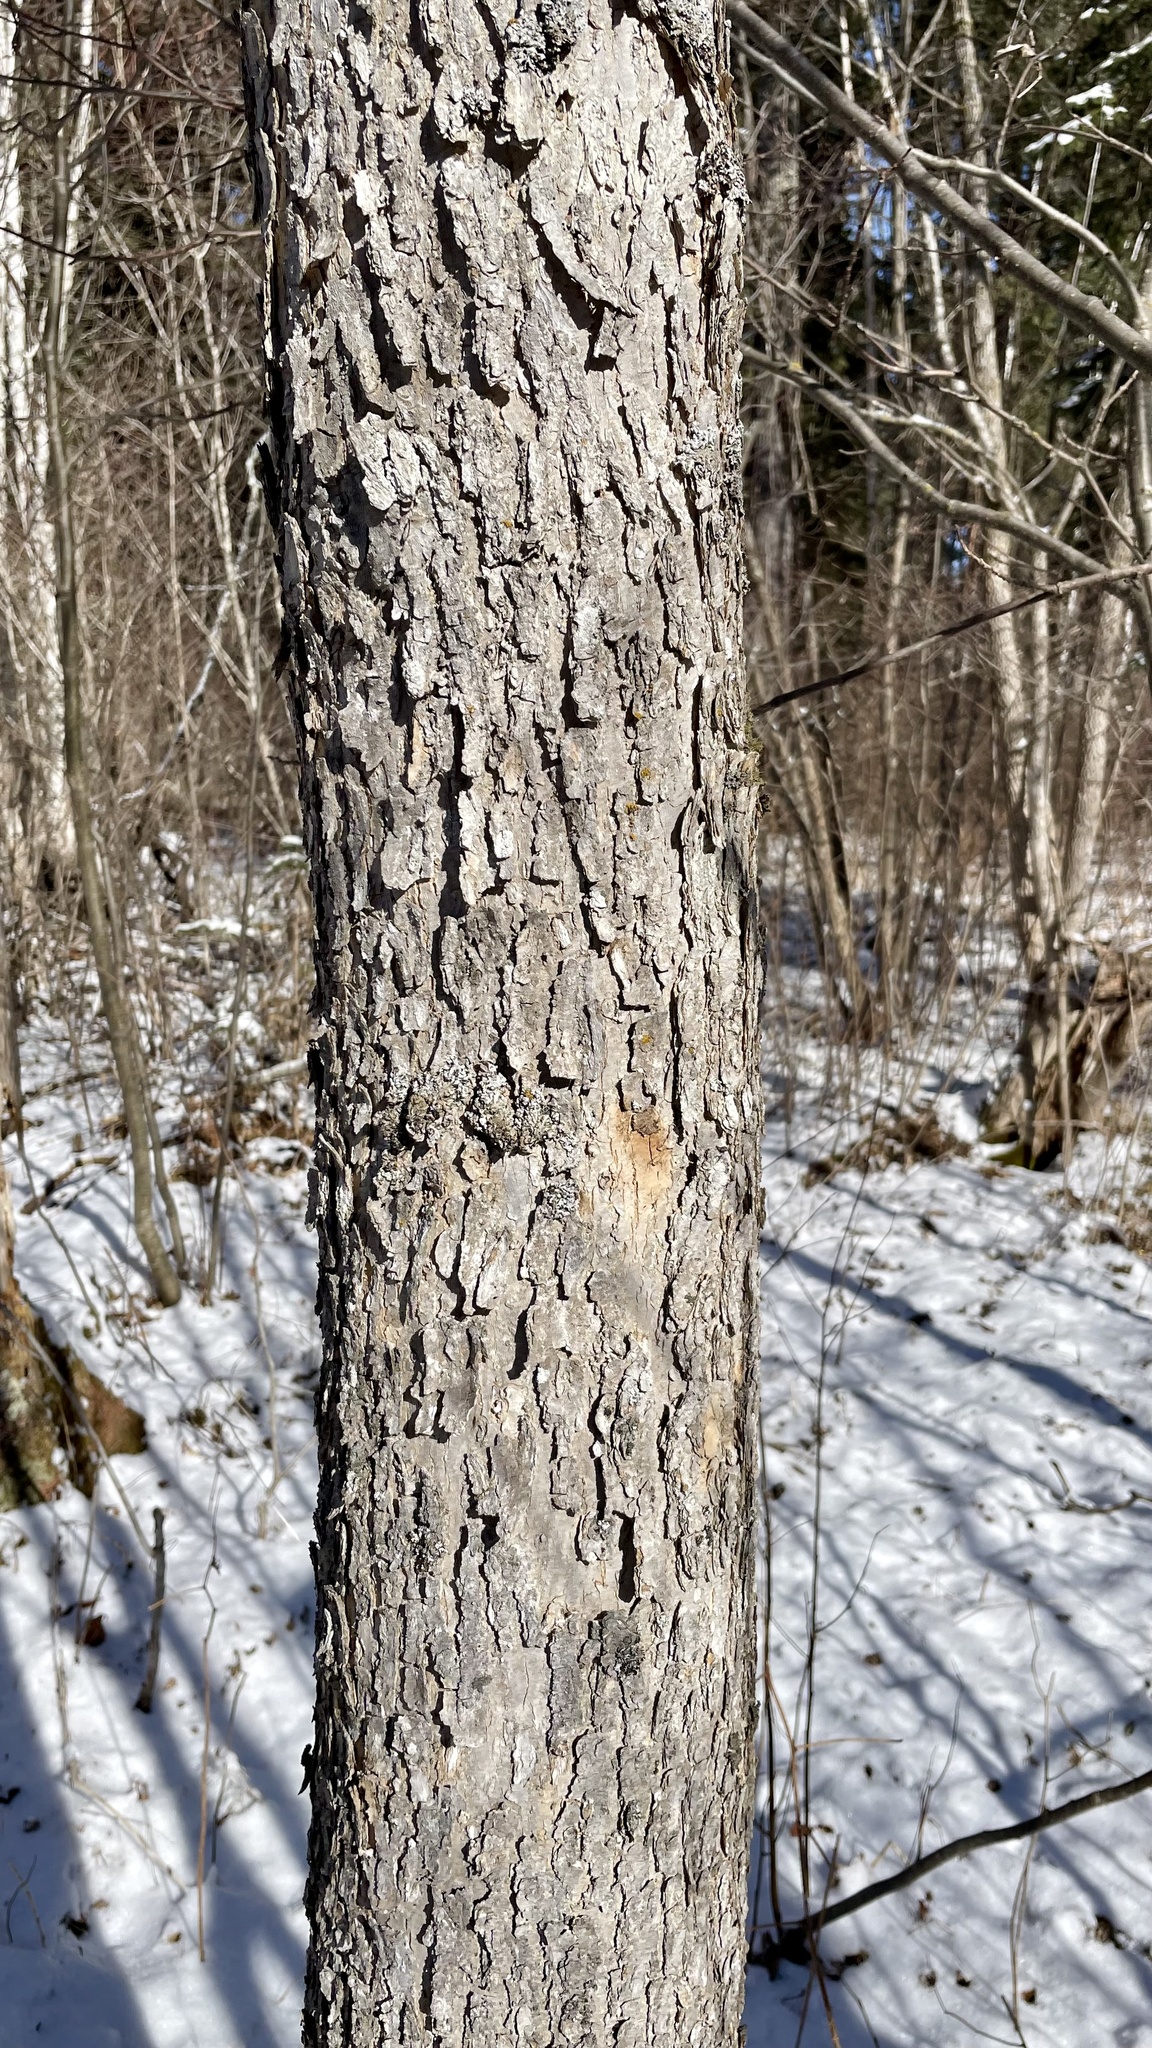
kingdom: Plantae
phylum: Tracheophyta
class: Magnoliopsida
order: Lamiales
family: Oleaceae
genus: Fraxinus
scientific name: Fraxinus nigra
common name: Black ash
